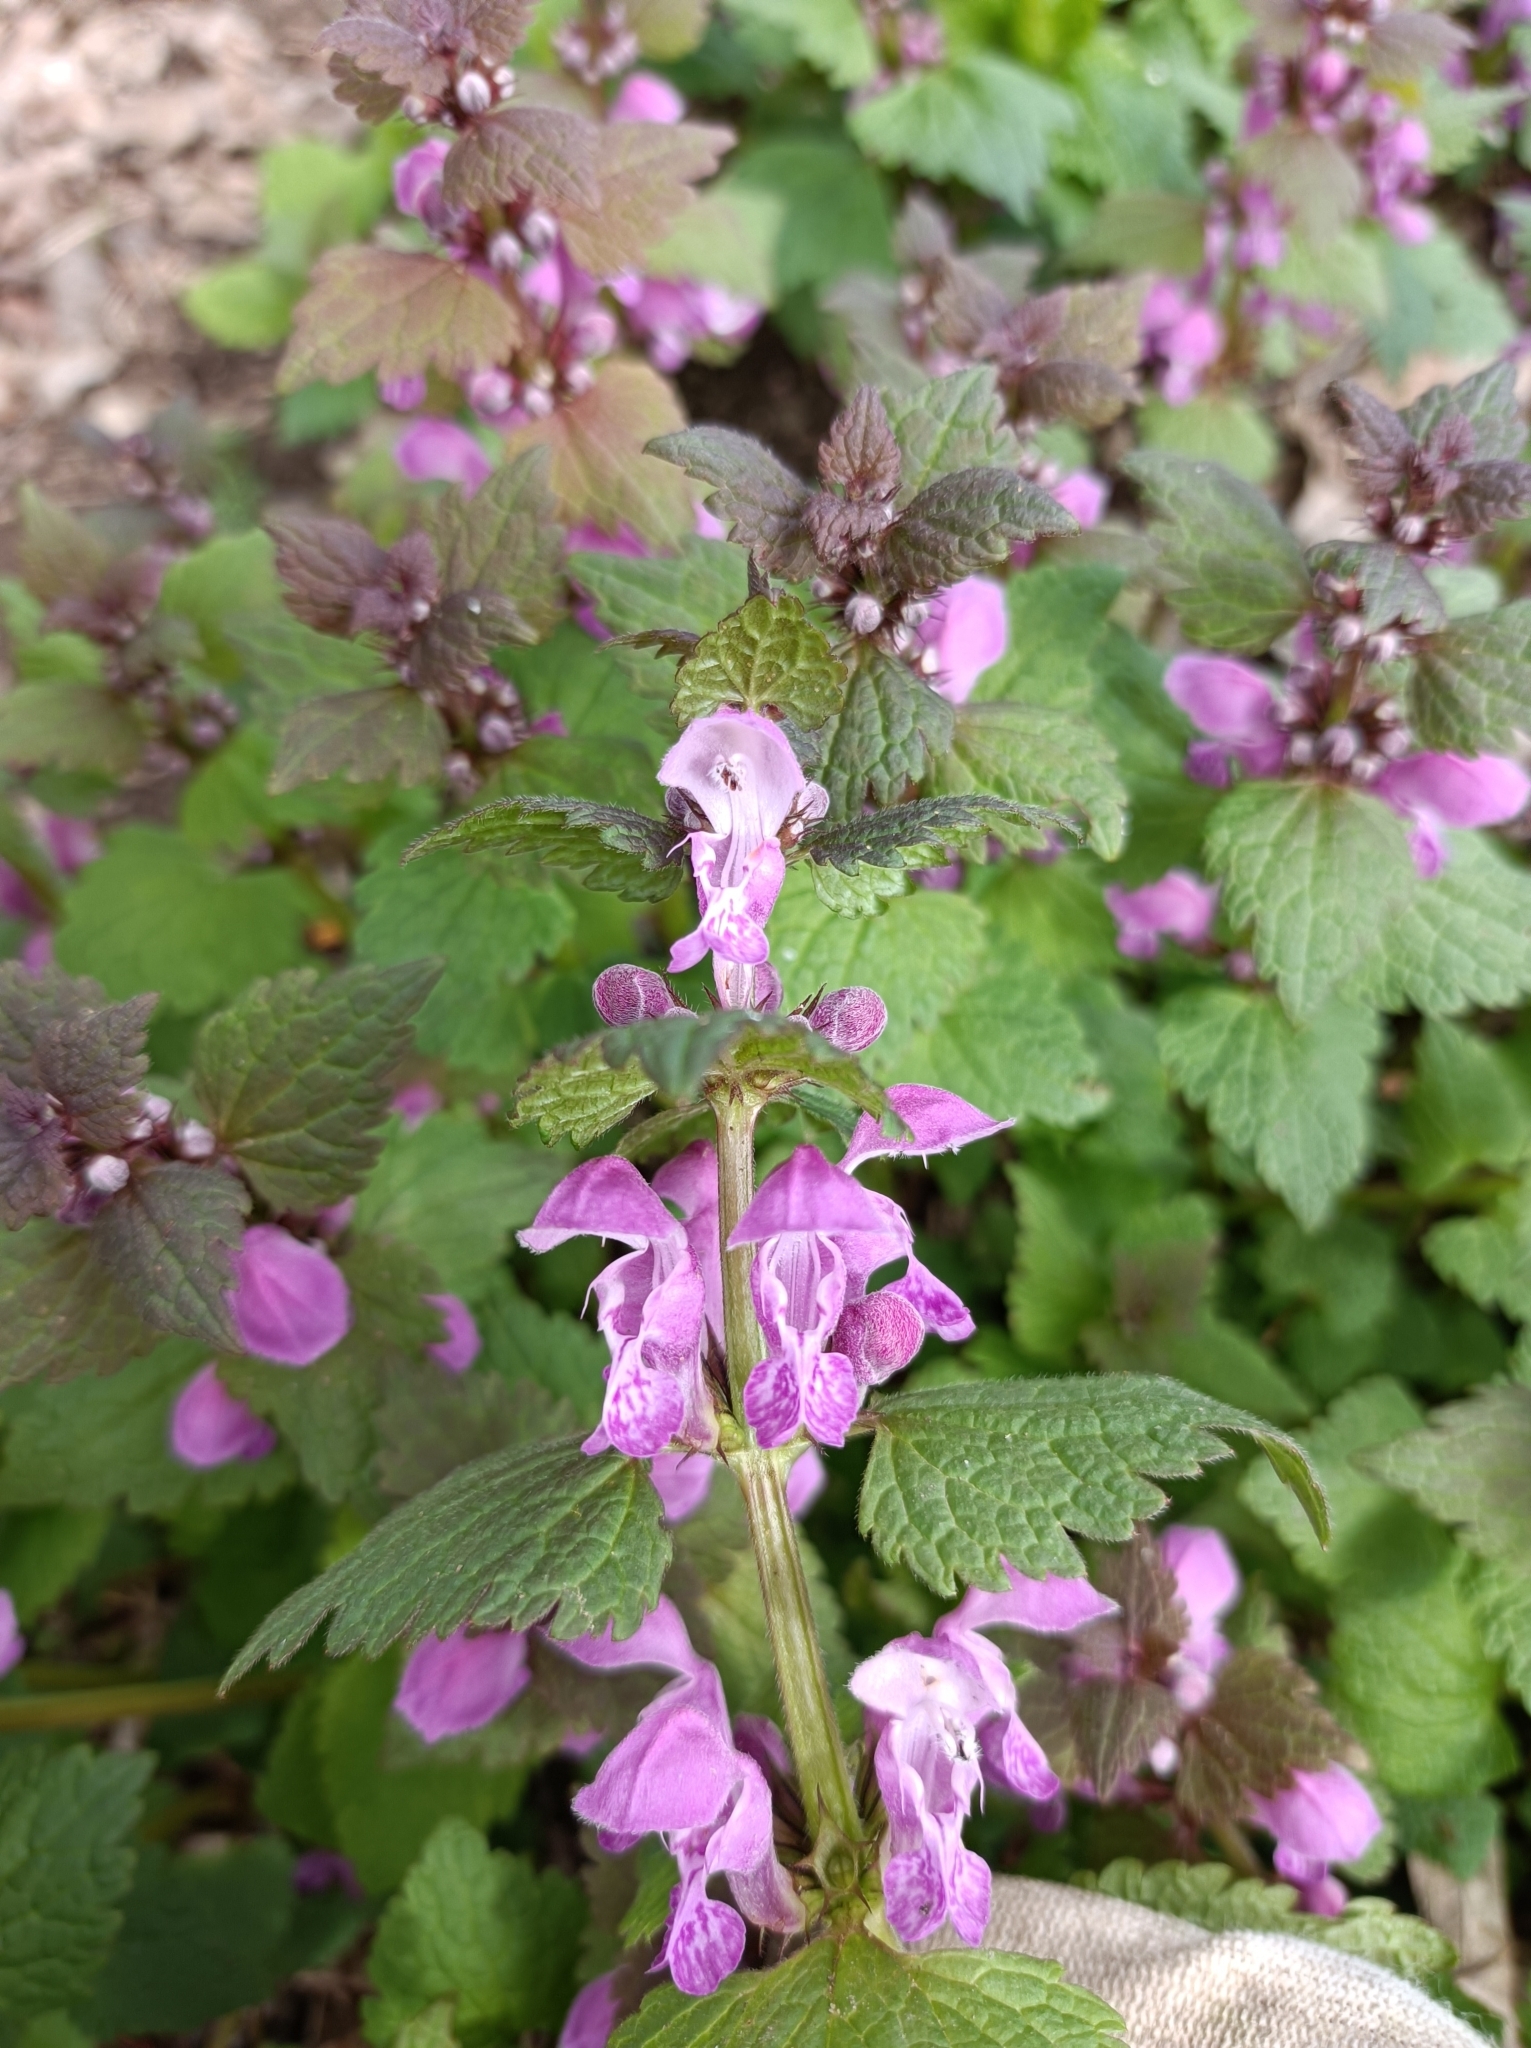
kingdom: Plantae
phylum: Tracheophyta
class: Magnoliopsida
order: Lamiales
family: Lamiaceae
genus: Lamium
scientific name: Lamium maculatum
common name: Spotted dead-nettle
